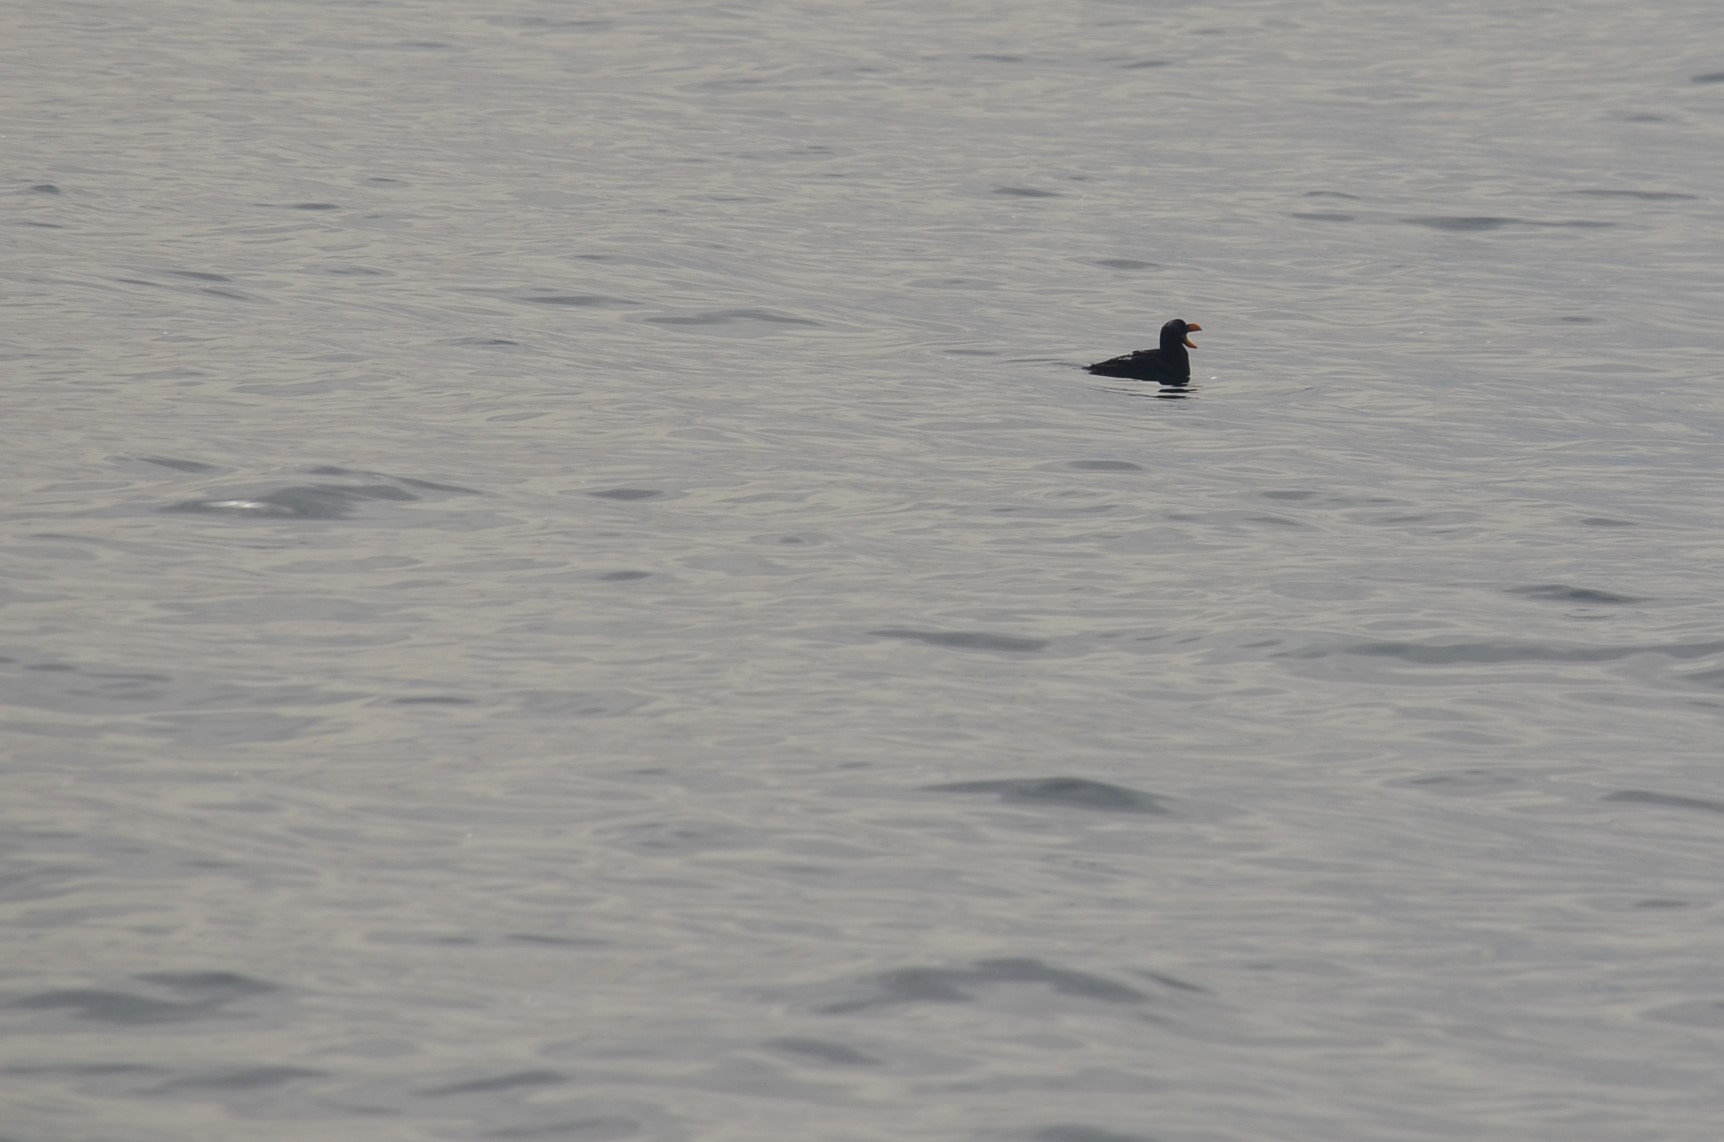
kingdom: Animalia
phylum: Chordata
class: Aves
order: Charadriiformes
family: Alcidae
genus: Fratercula
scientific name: Fratercula cirrhata
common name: Tufted puffin
